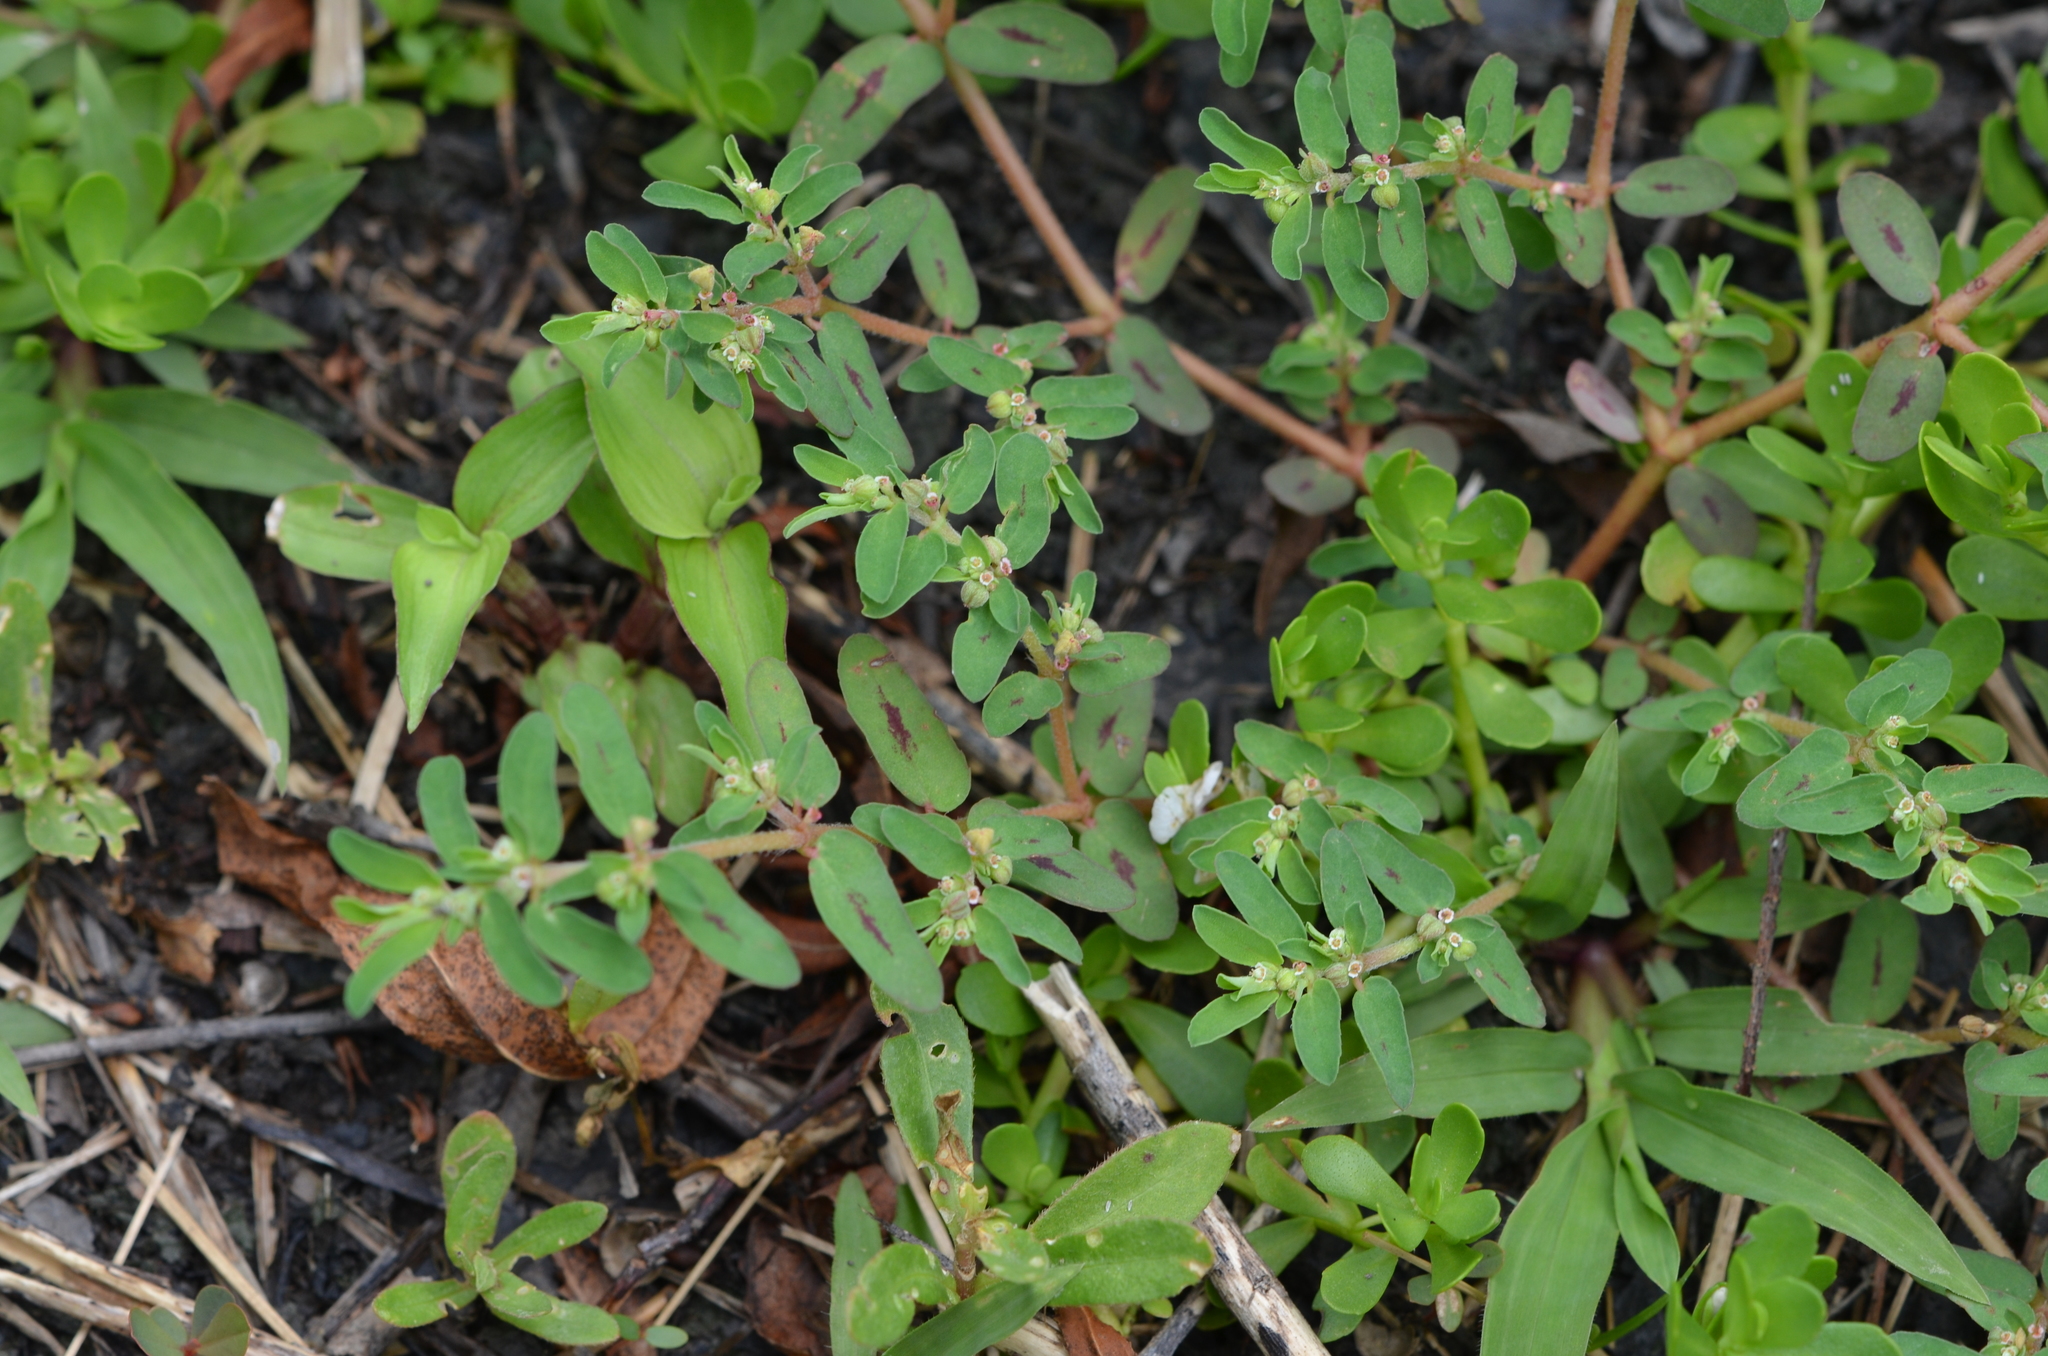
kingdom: Plantae
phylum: Tracheophyta
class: Magnoliopsida
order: Malpighiales
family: Euphorbiaceae
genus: Euphorbia
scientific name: Euphorbia maculata
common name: Spotted spurge
